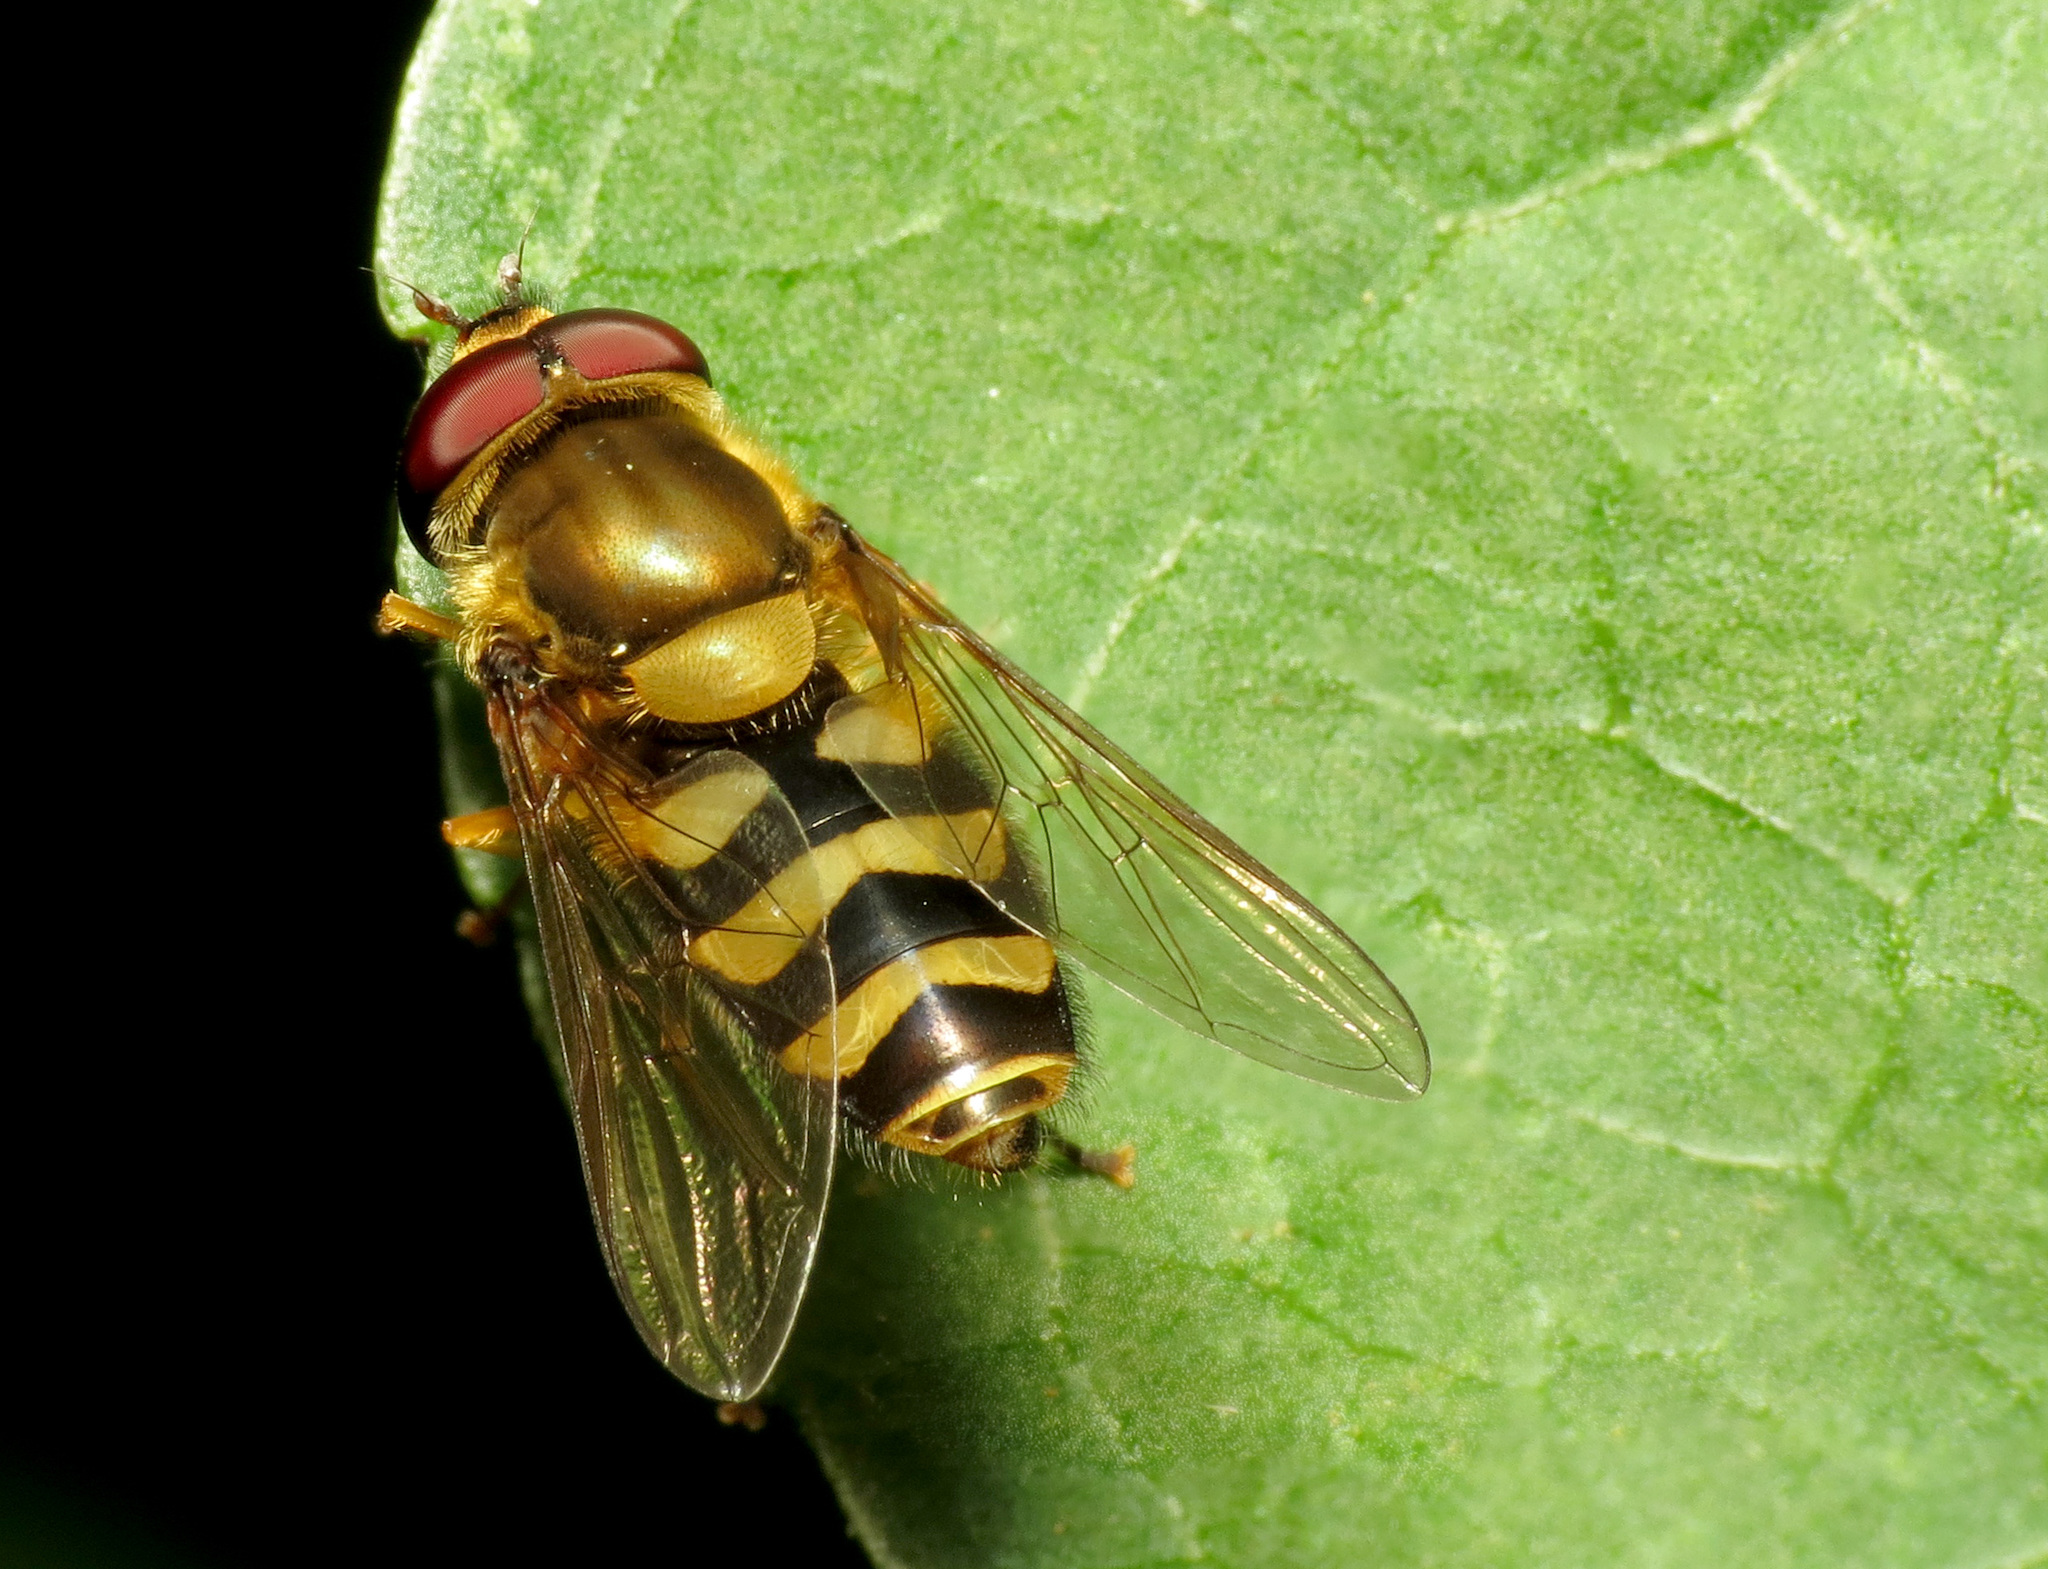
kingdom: Animalia
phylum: Arthropoda
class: Insecta
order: Diptera
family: Syrphidae
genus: Syrphus
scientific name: Syrphus
